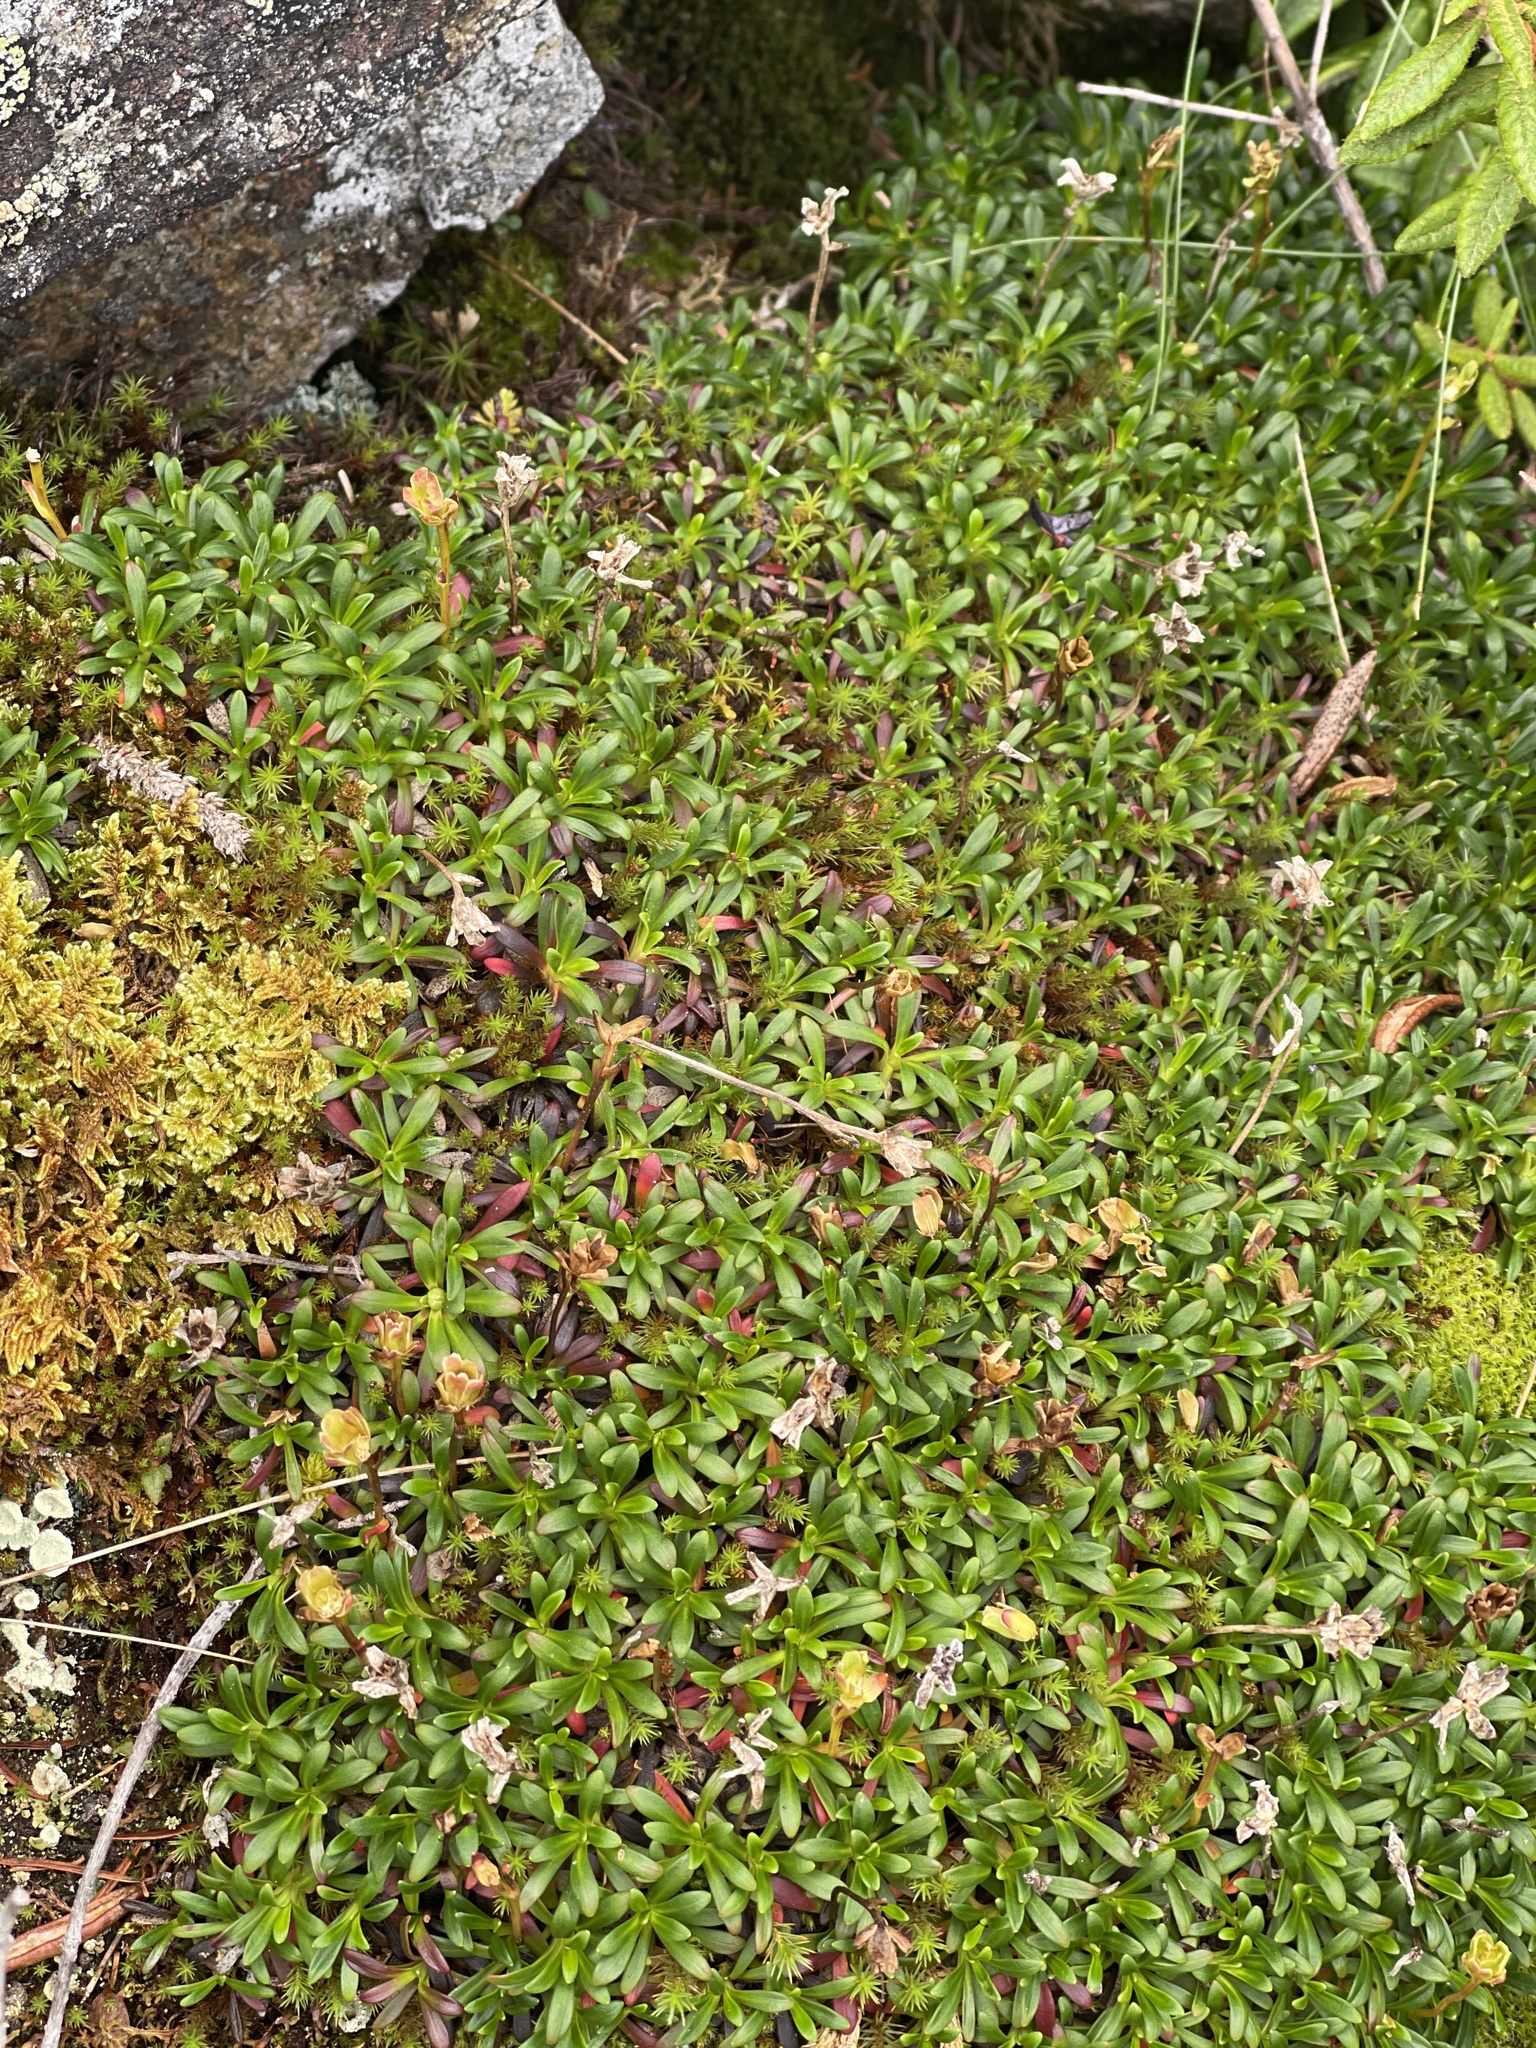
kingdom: Plantae
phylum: Tracheophyta
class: Magnoliopsida
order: Ericales
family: Diapensiaceae
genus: Diapensia
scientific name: Diapensia lapponica
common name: Diapensia
